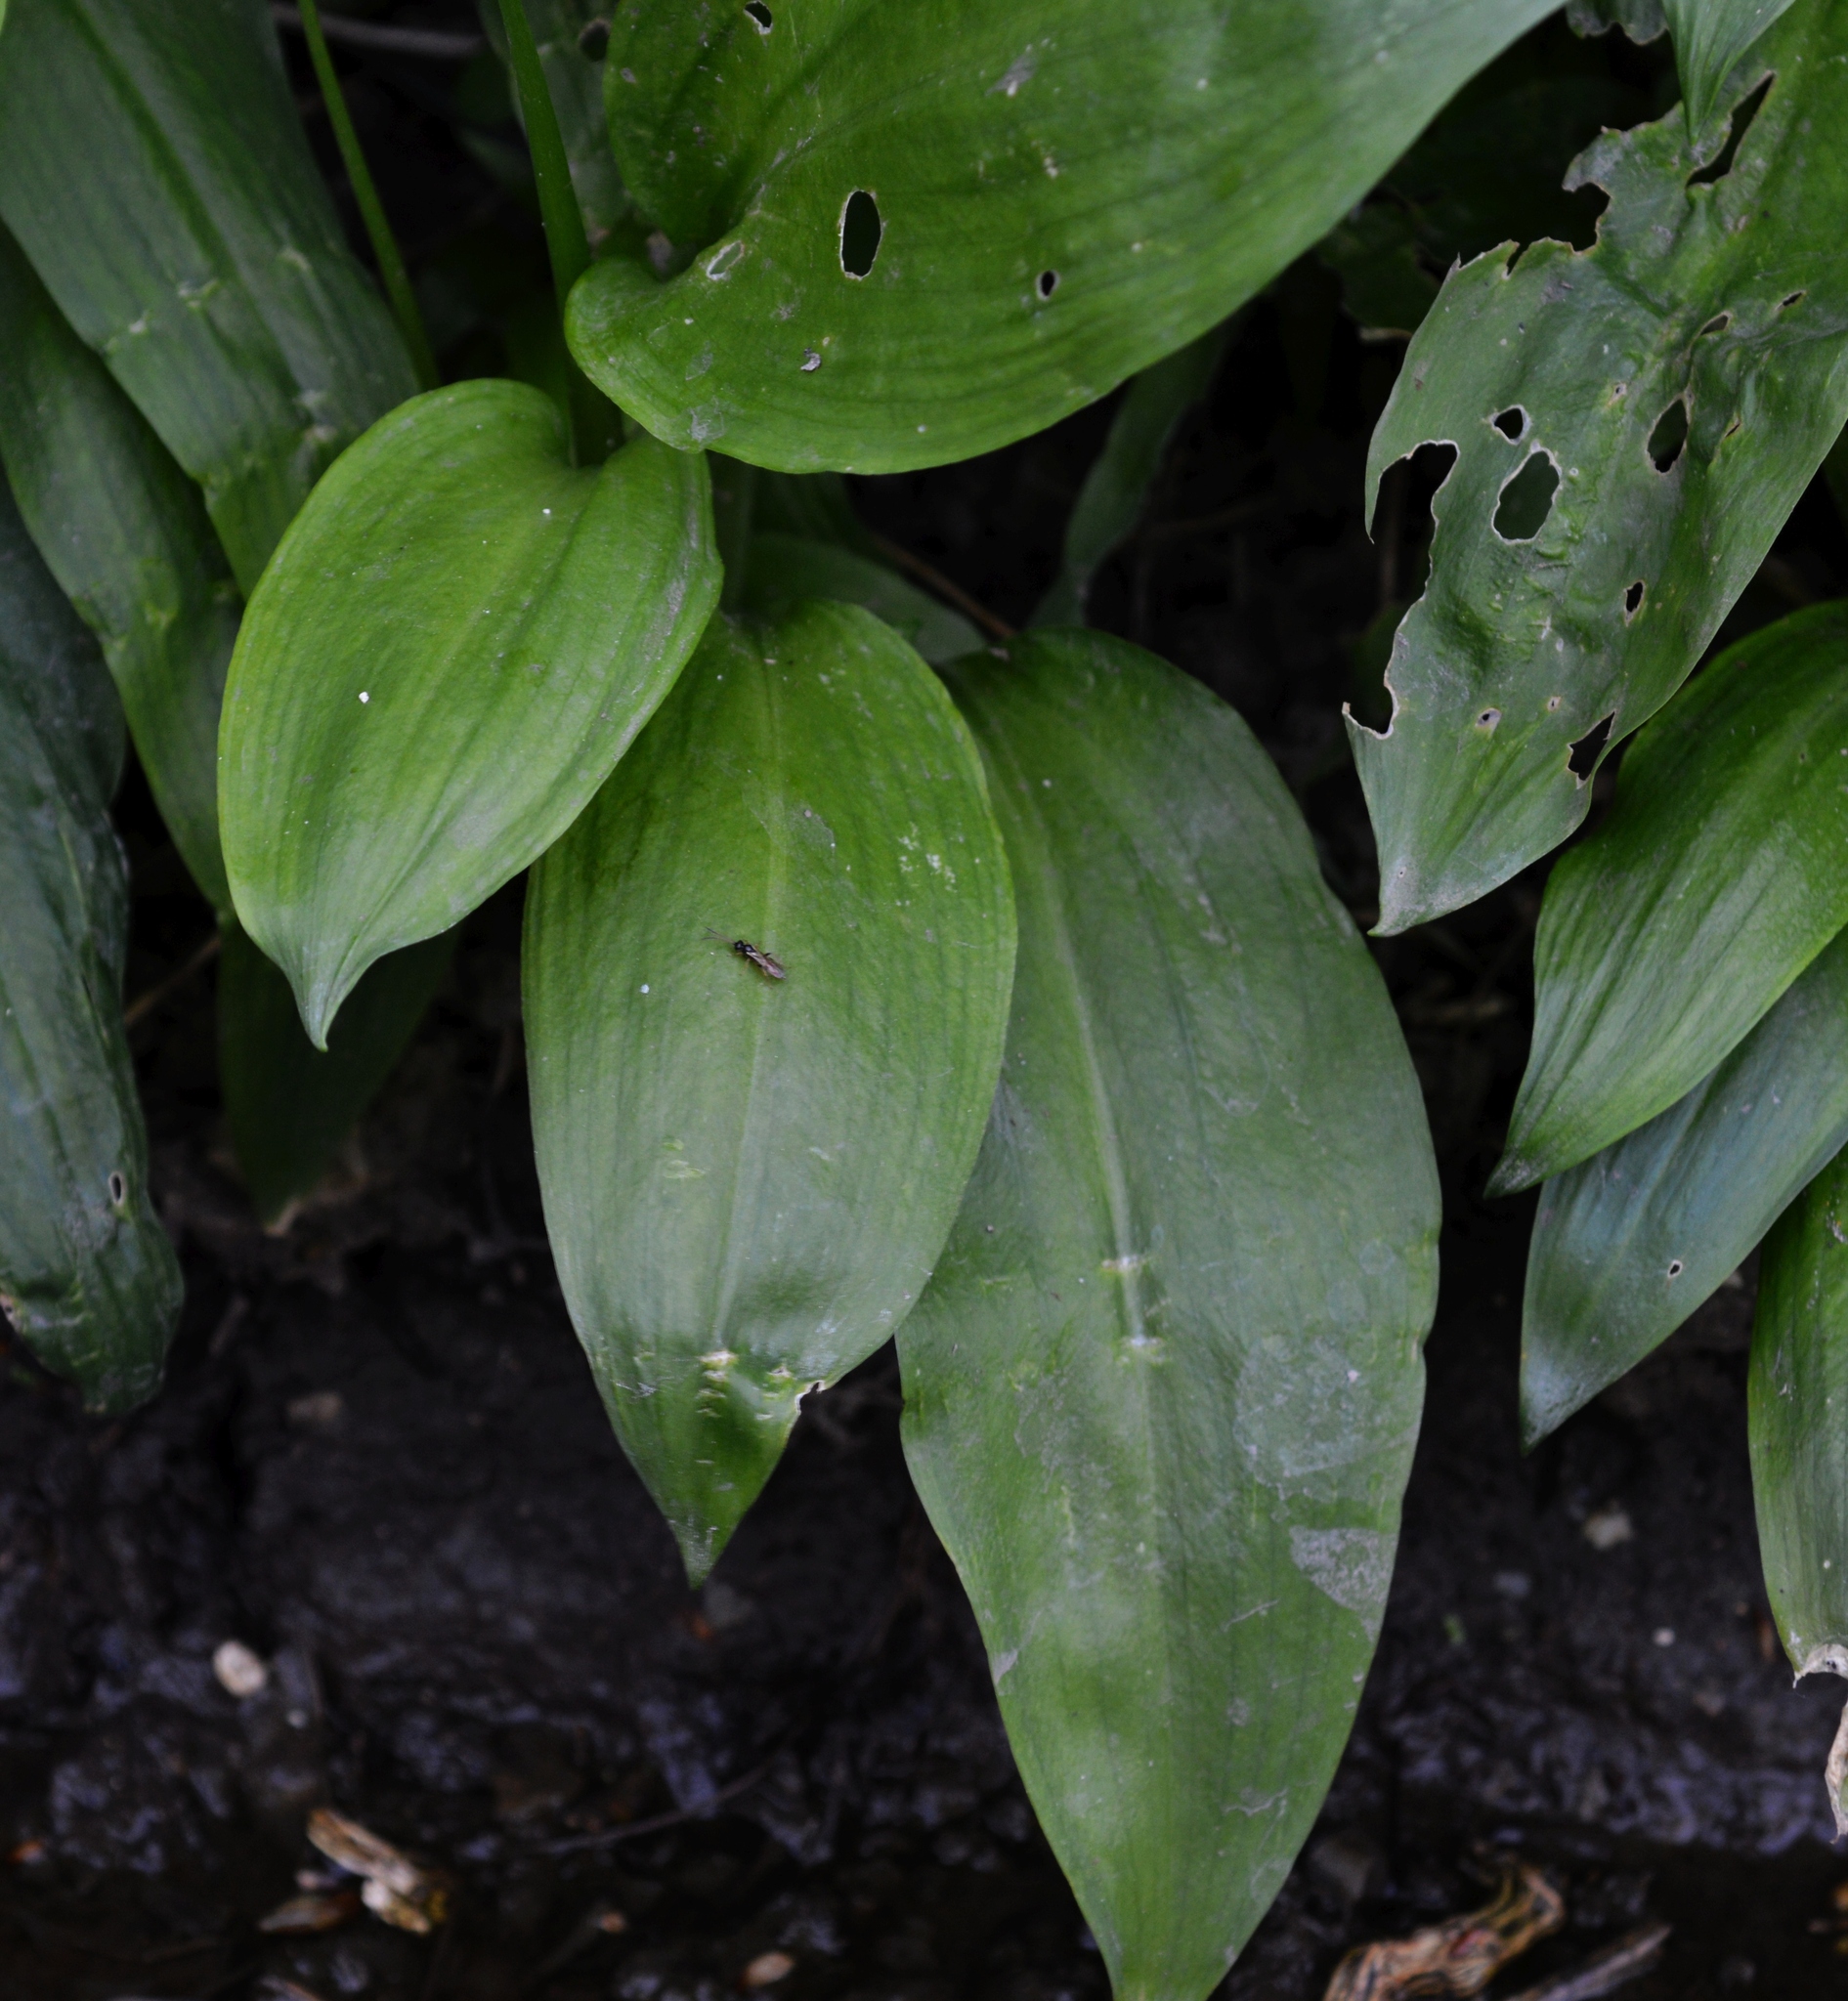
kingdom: Plantae
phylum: Tracheophyta
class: Liliopsida
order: Asparagales
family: Amaryllidaceae
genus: Allium
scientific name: Allium ursinum
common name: Ramsons
